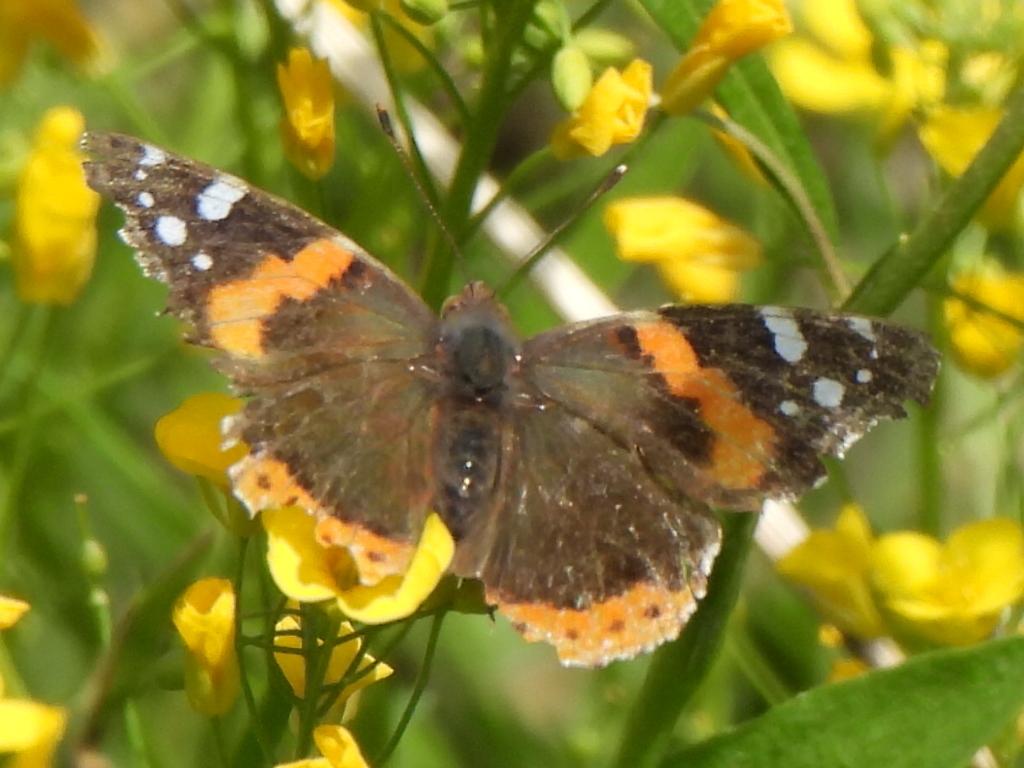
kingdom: Animalia
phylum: Arthropoda
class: Insecta
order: Lepidoptera
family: Nymphalidae
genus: Vanessa
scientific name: Vanessa atalanta
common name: Red admiral
